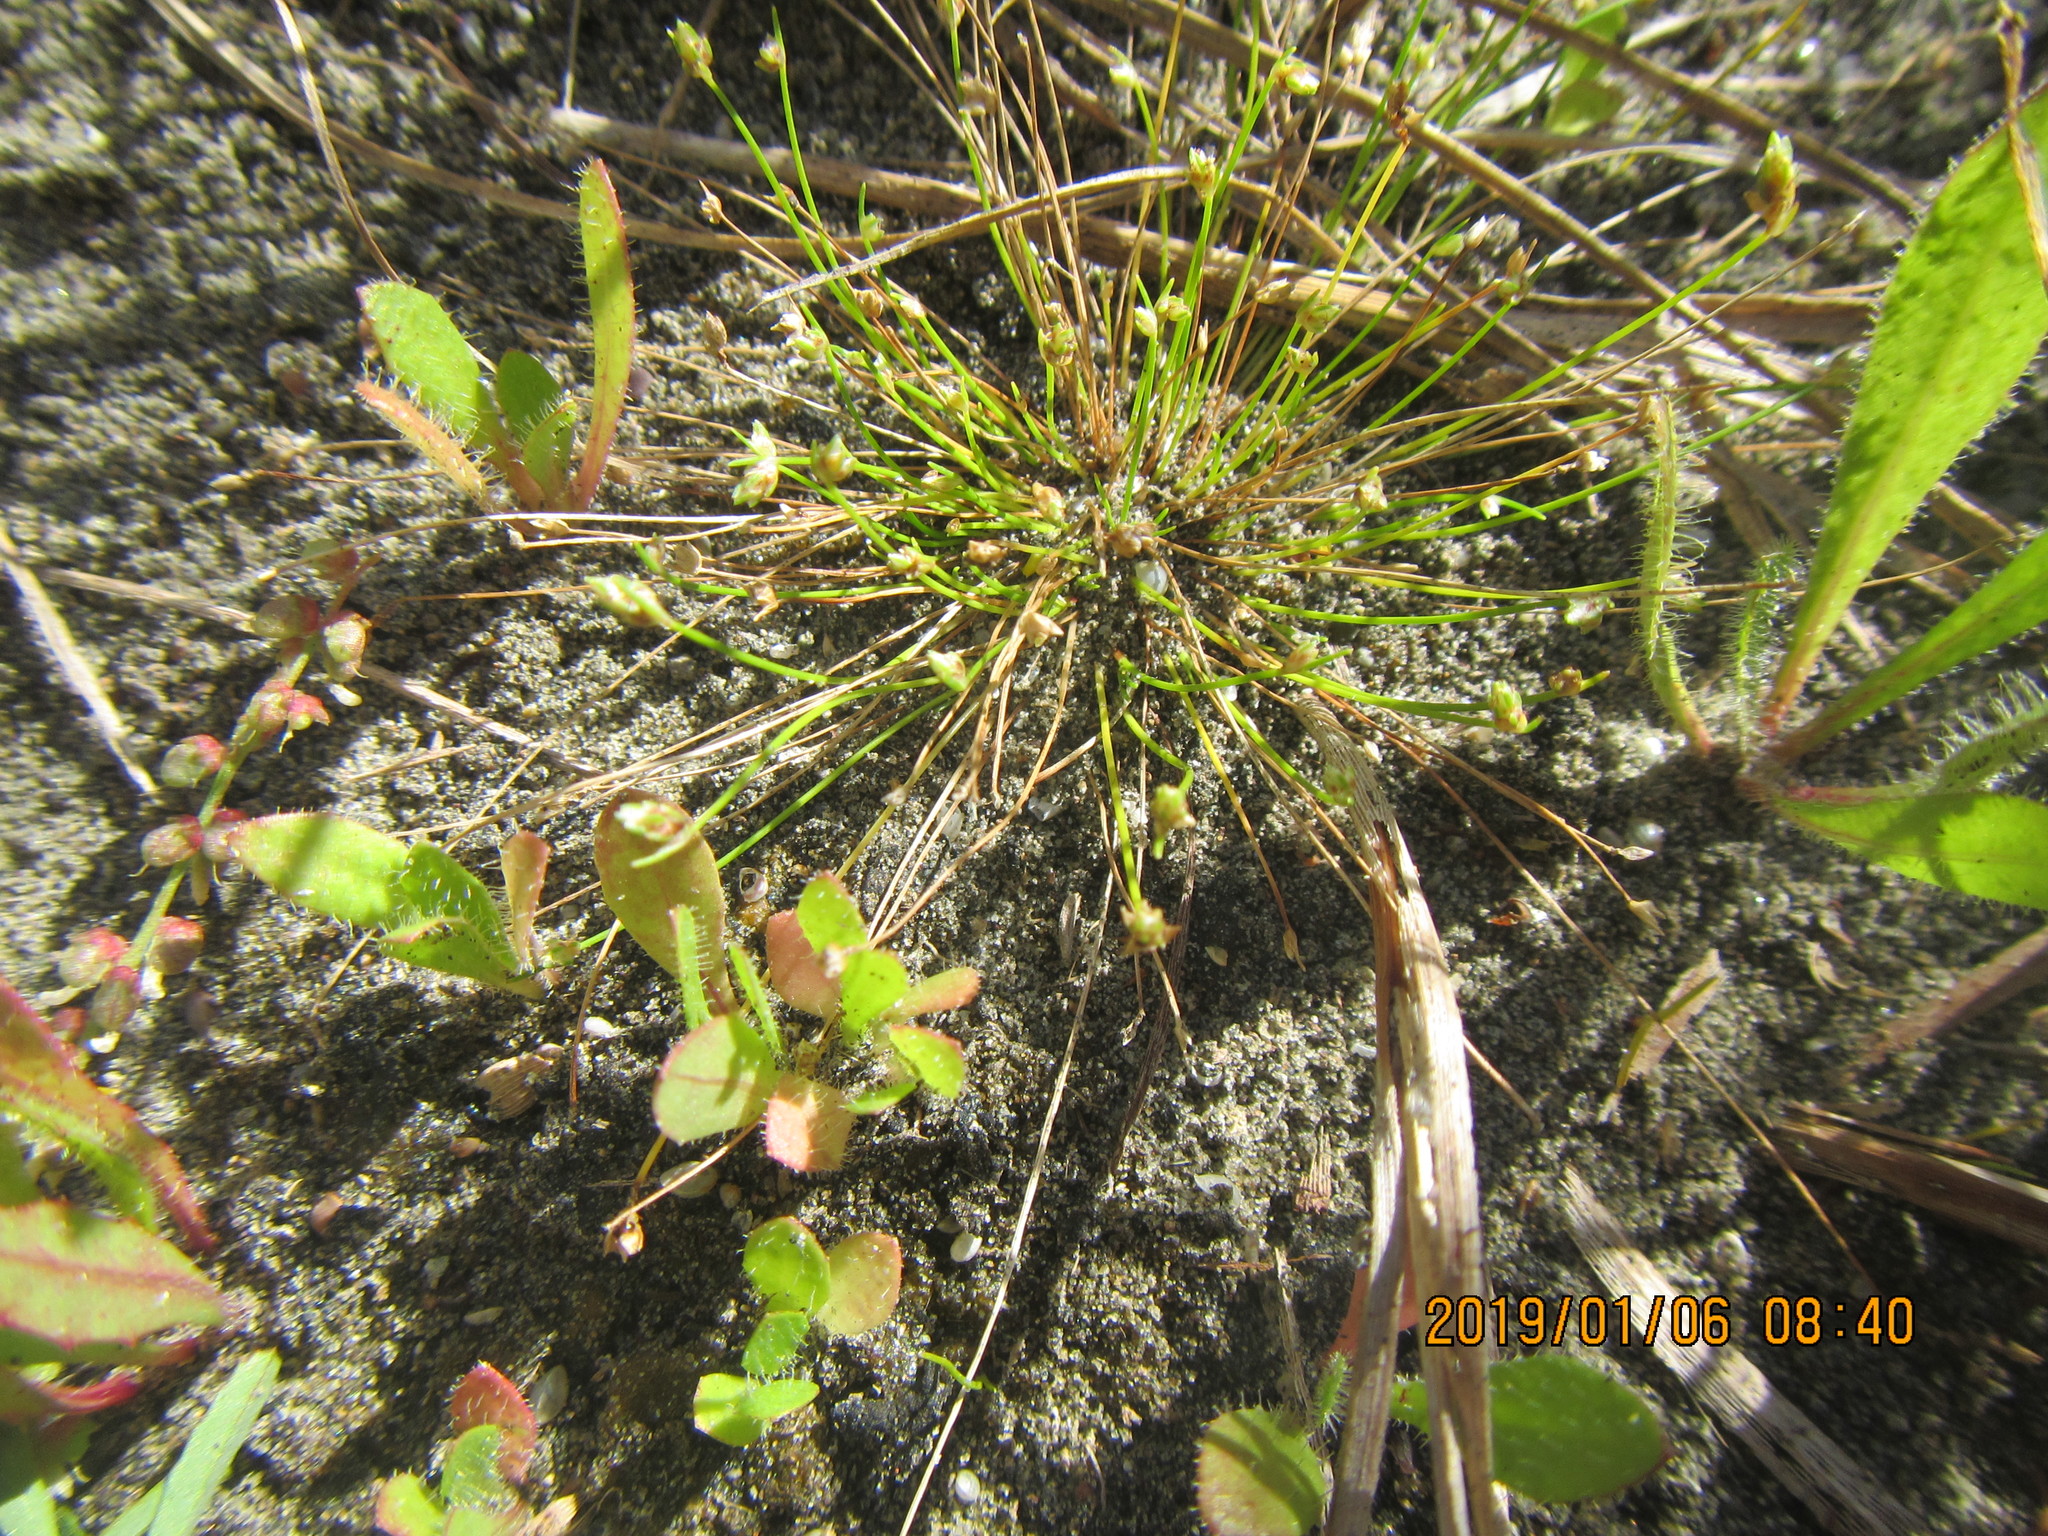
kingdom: Plantae
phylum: Tracheophyta
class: Liliopsida
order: Poales
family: Cyperaceae
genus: Isolepis
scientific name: Isolepis cernua
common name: Slender club-rush
